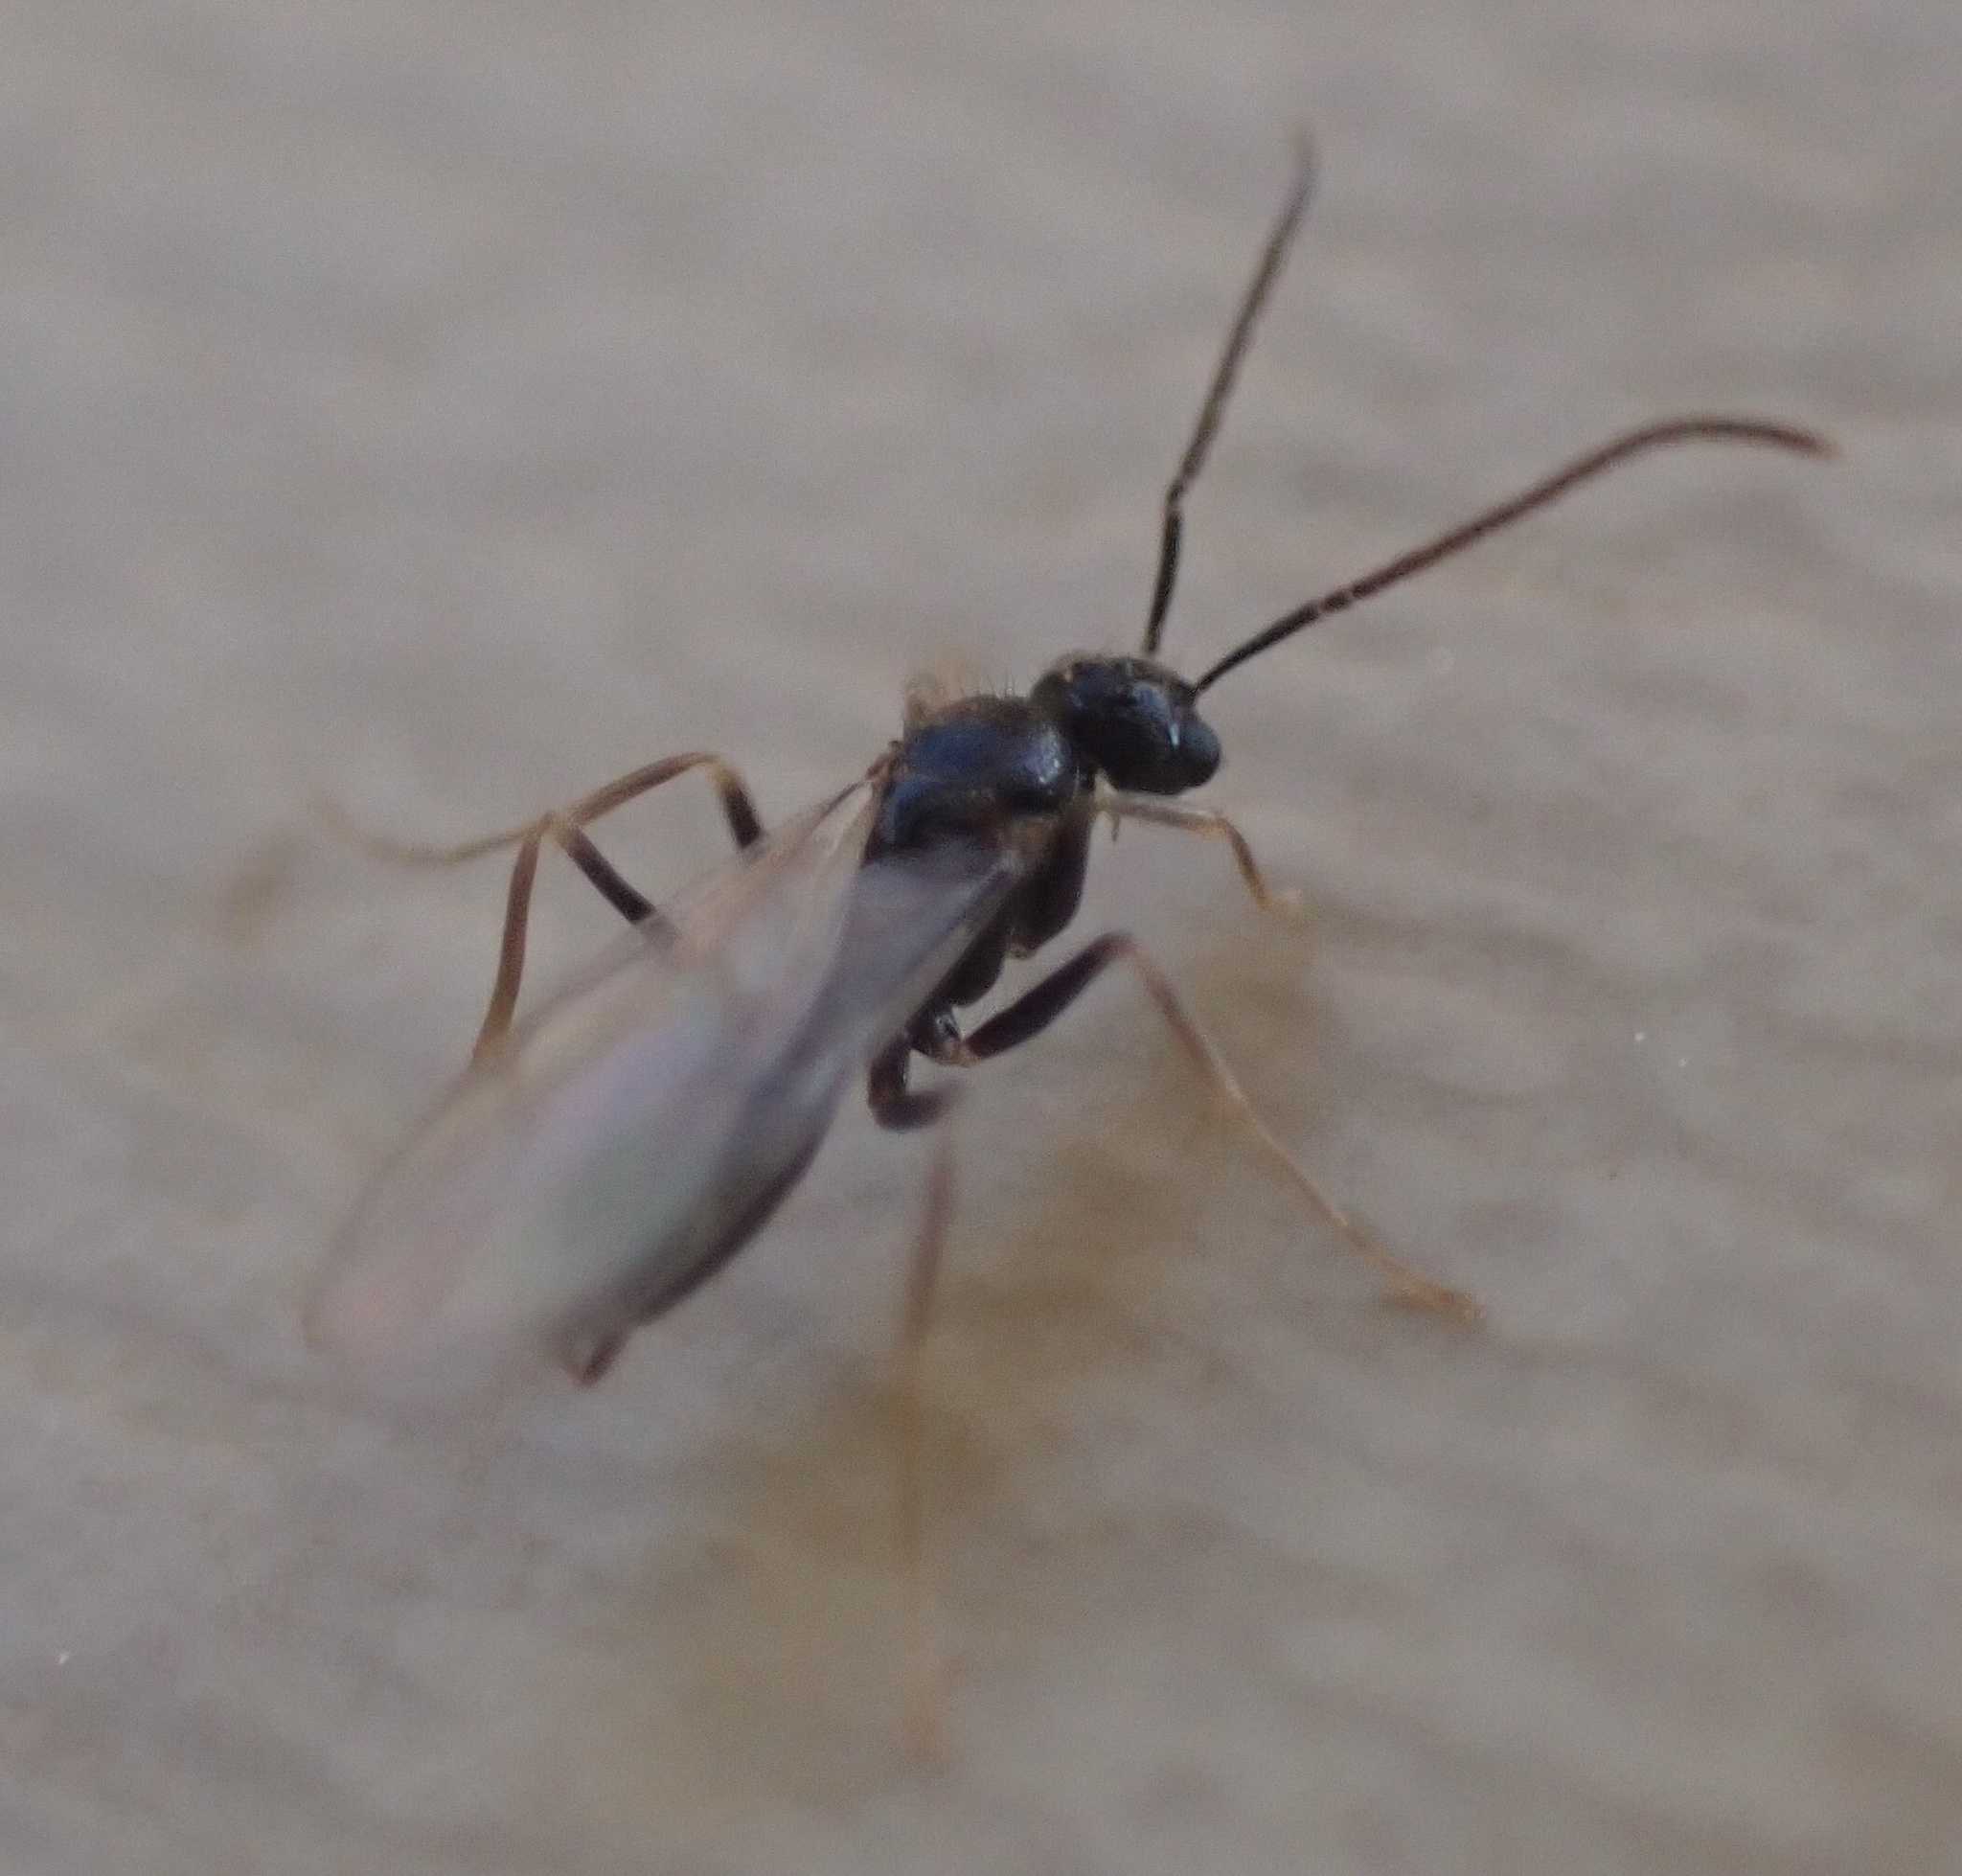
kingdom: Animalia
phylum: Arthropoda
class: Insecta
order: Hymenoptera
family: Formicidae
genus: Prenolepis
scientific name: Prenolepis imparis
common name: Small honey ant
